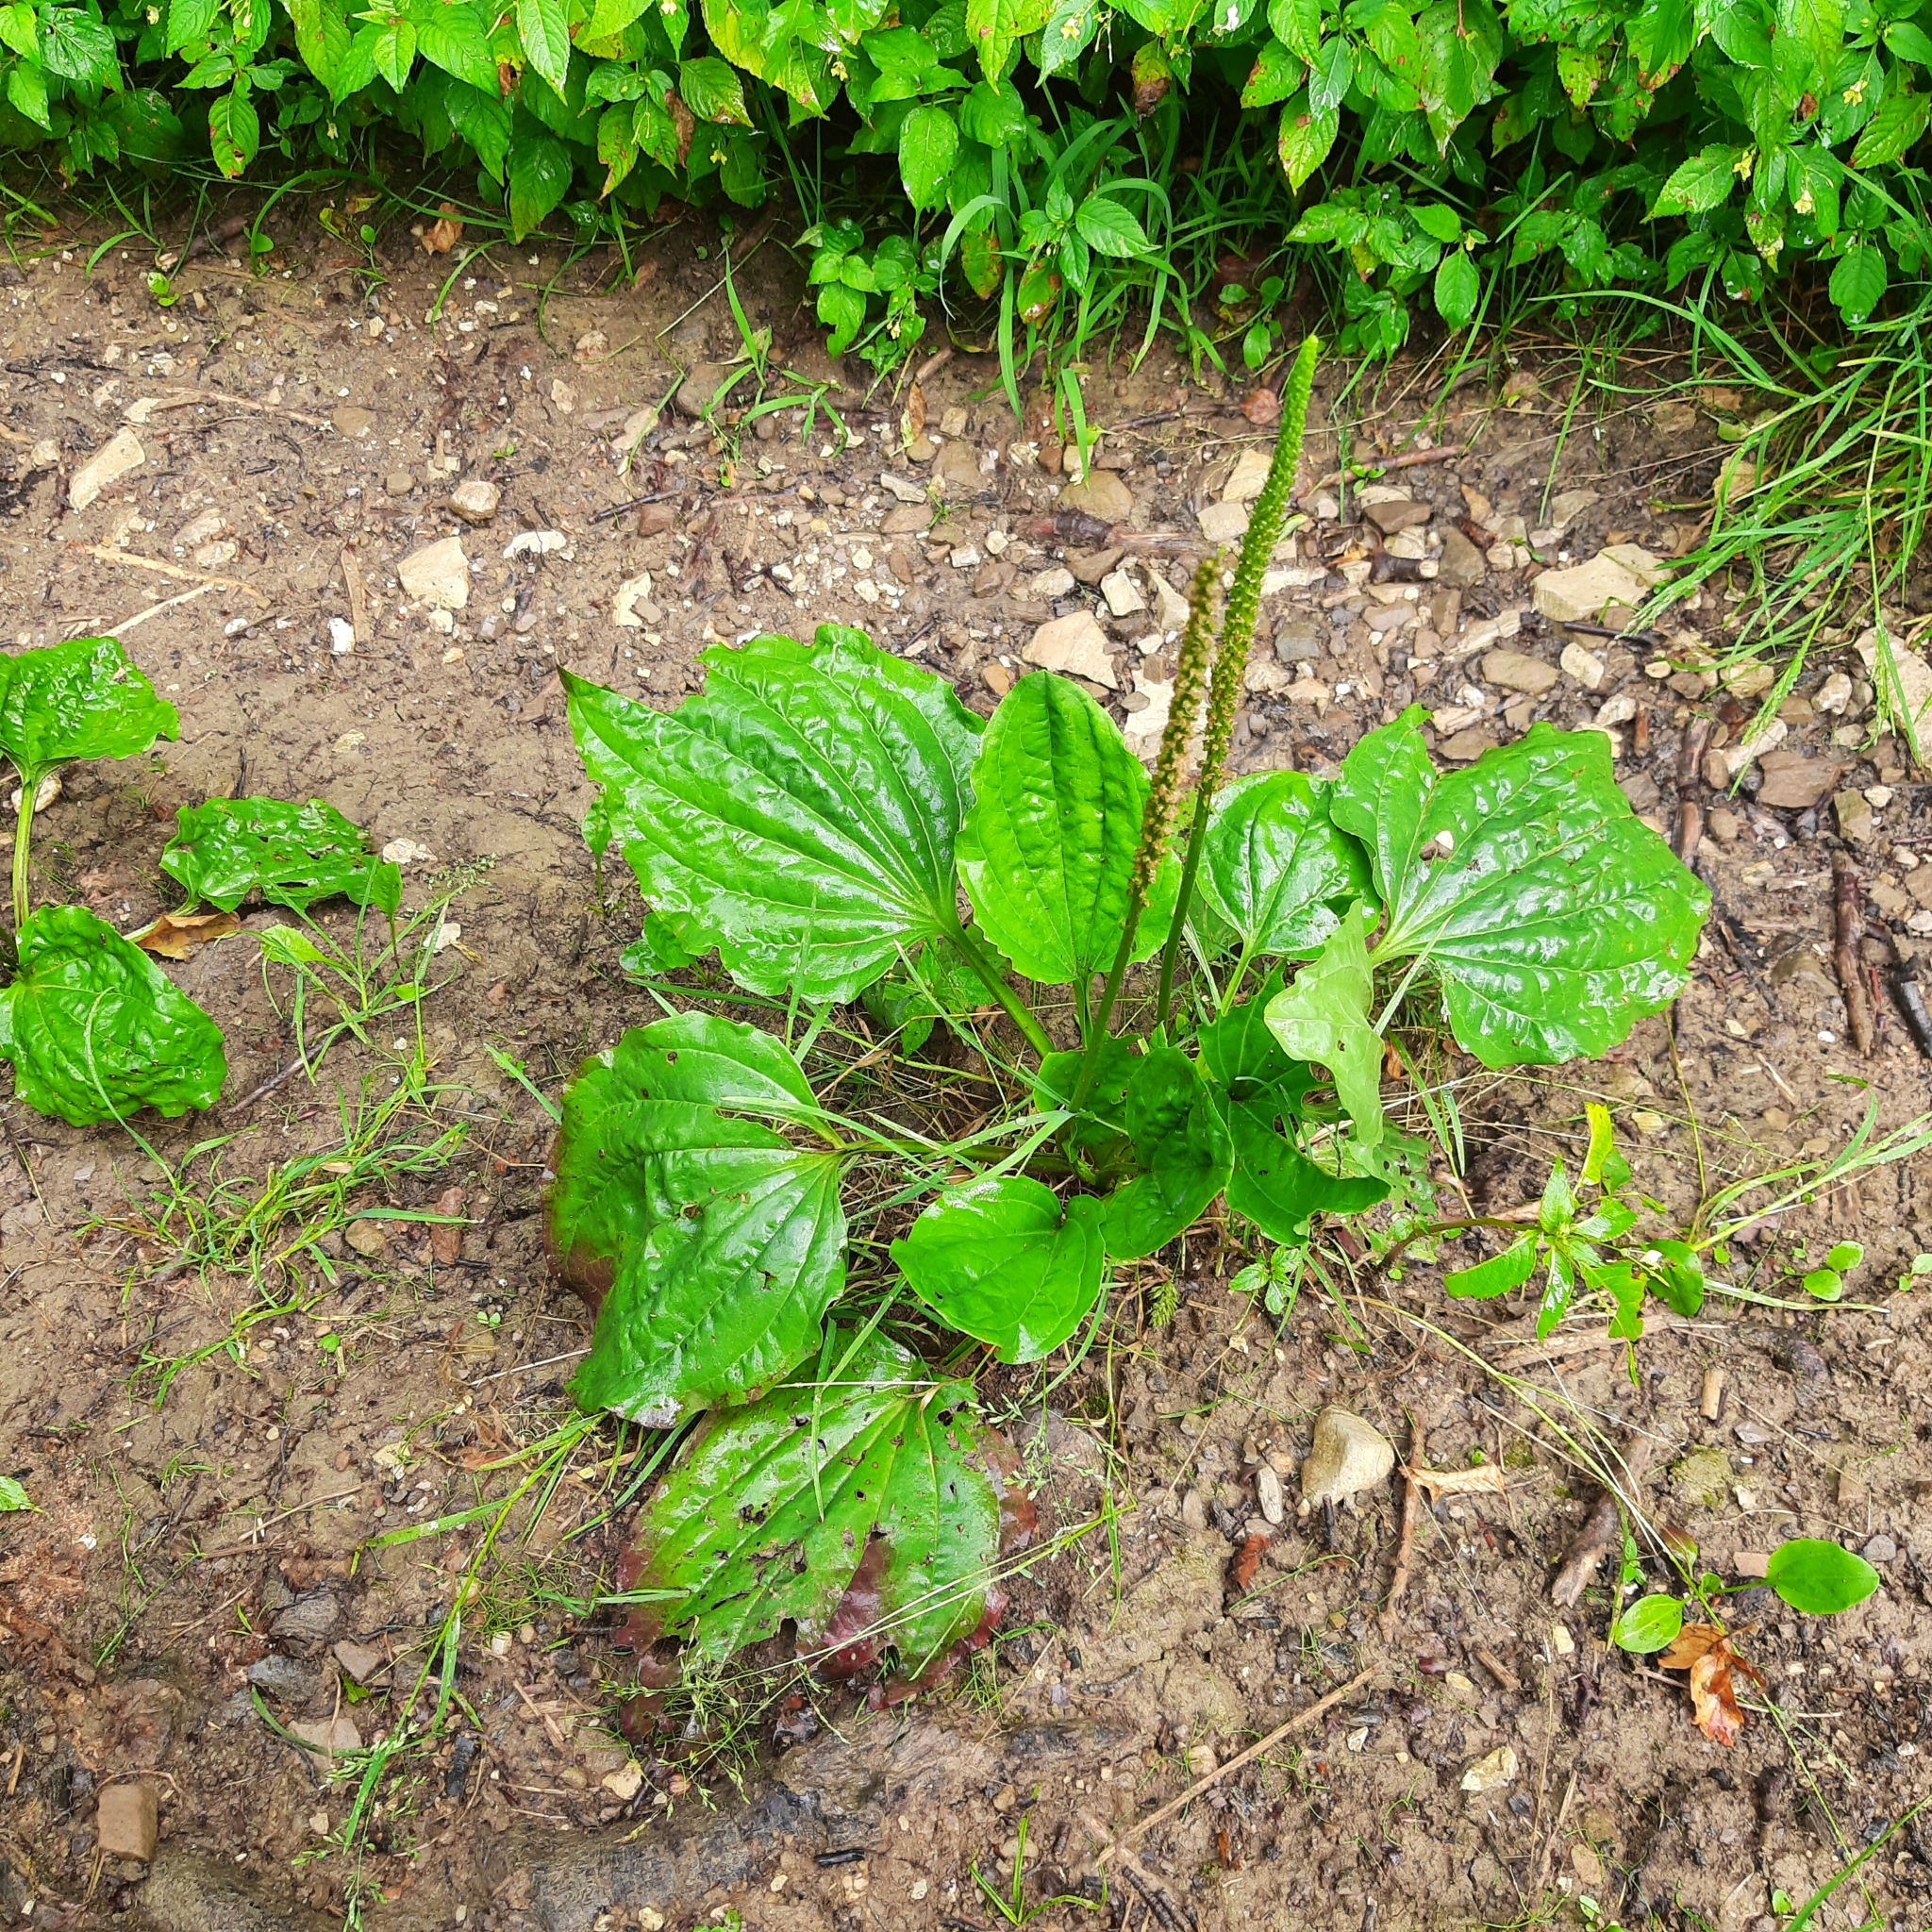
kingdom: Plantae
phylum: Tracheophyta
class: Magnoliopsida
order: Lamiales
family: Plantaginaceae
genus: Plantago
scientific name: Plantago major
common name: Common plantain
